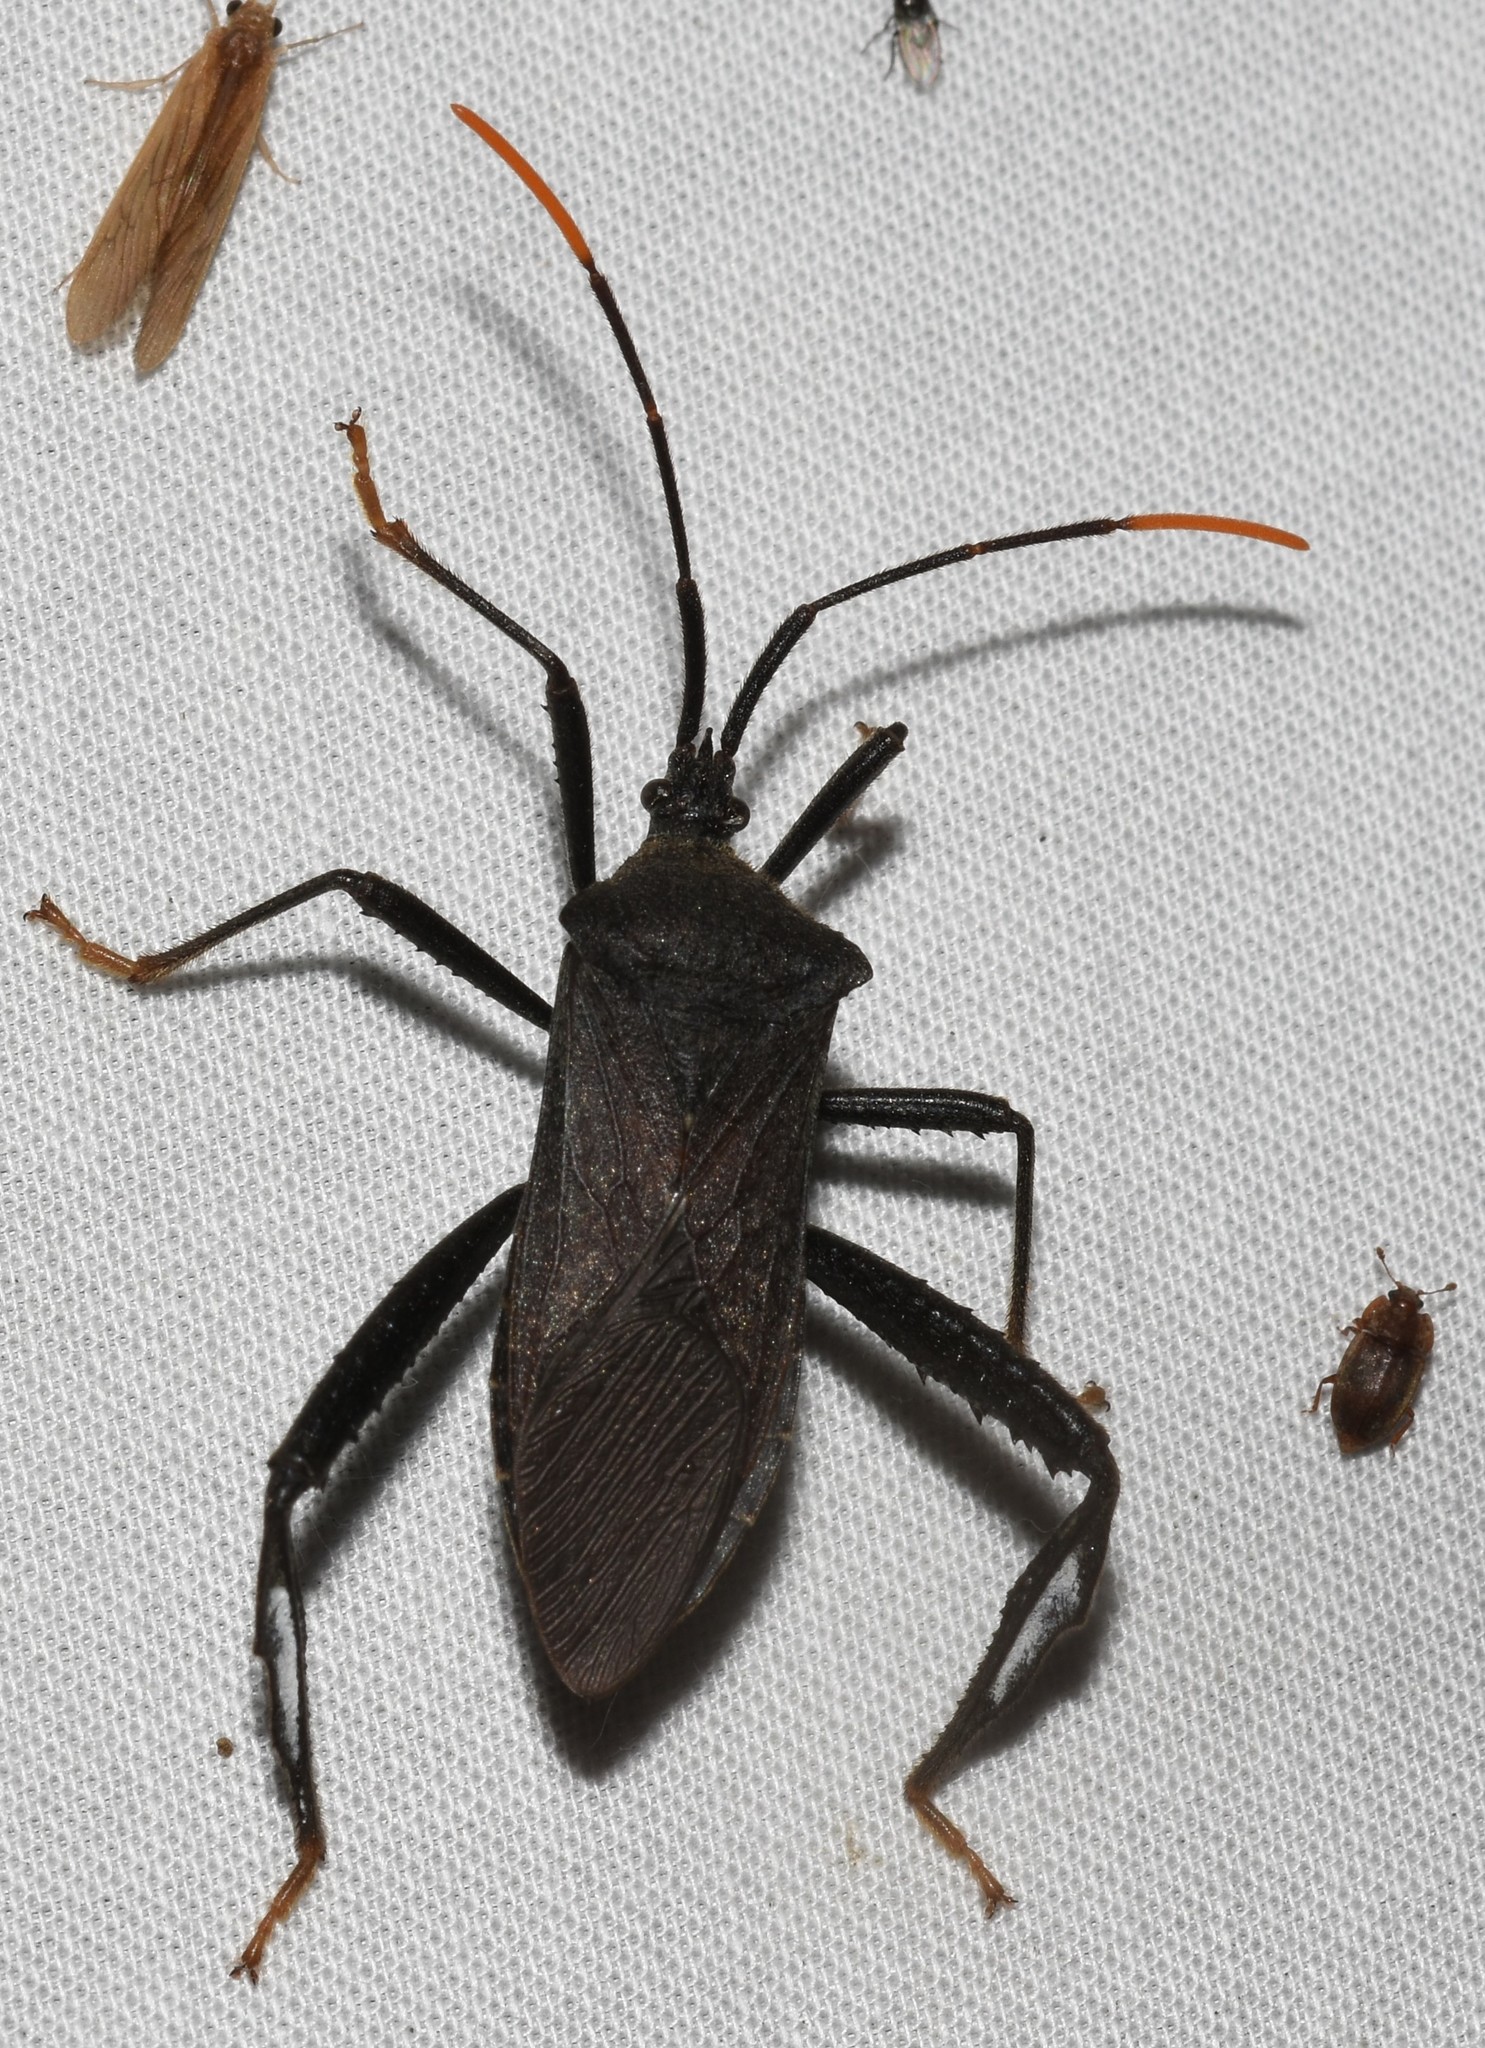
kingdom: Animalia
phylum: Arthropoda
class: Insecta
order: Hemiptera
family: Coreidae
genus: Acanthocephala
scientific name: Acanthocephala terminalis
